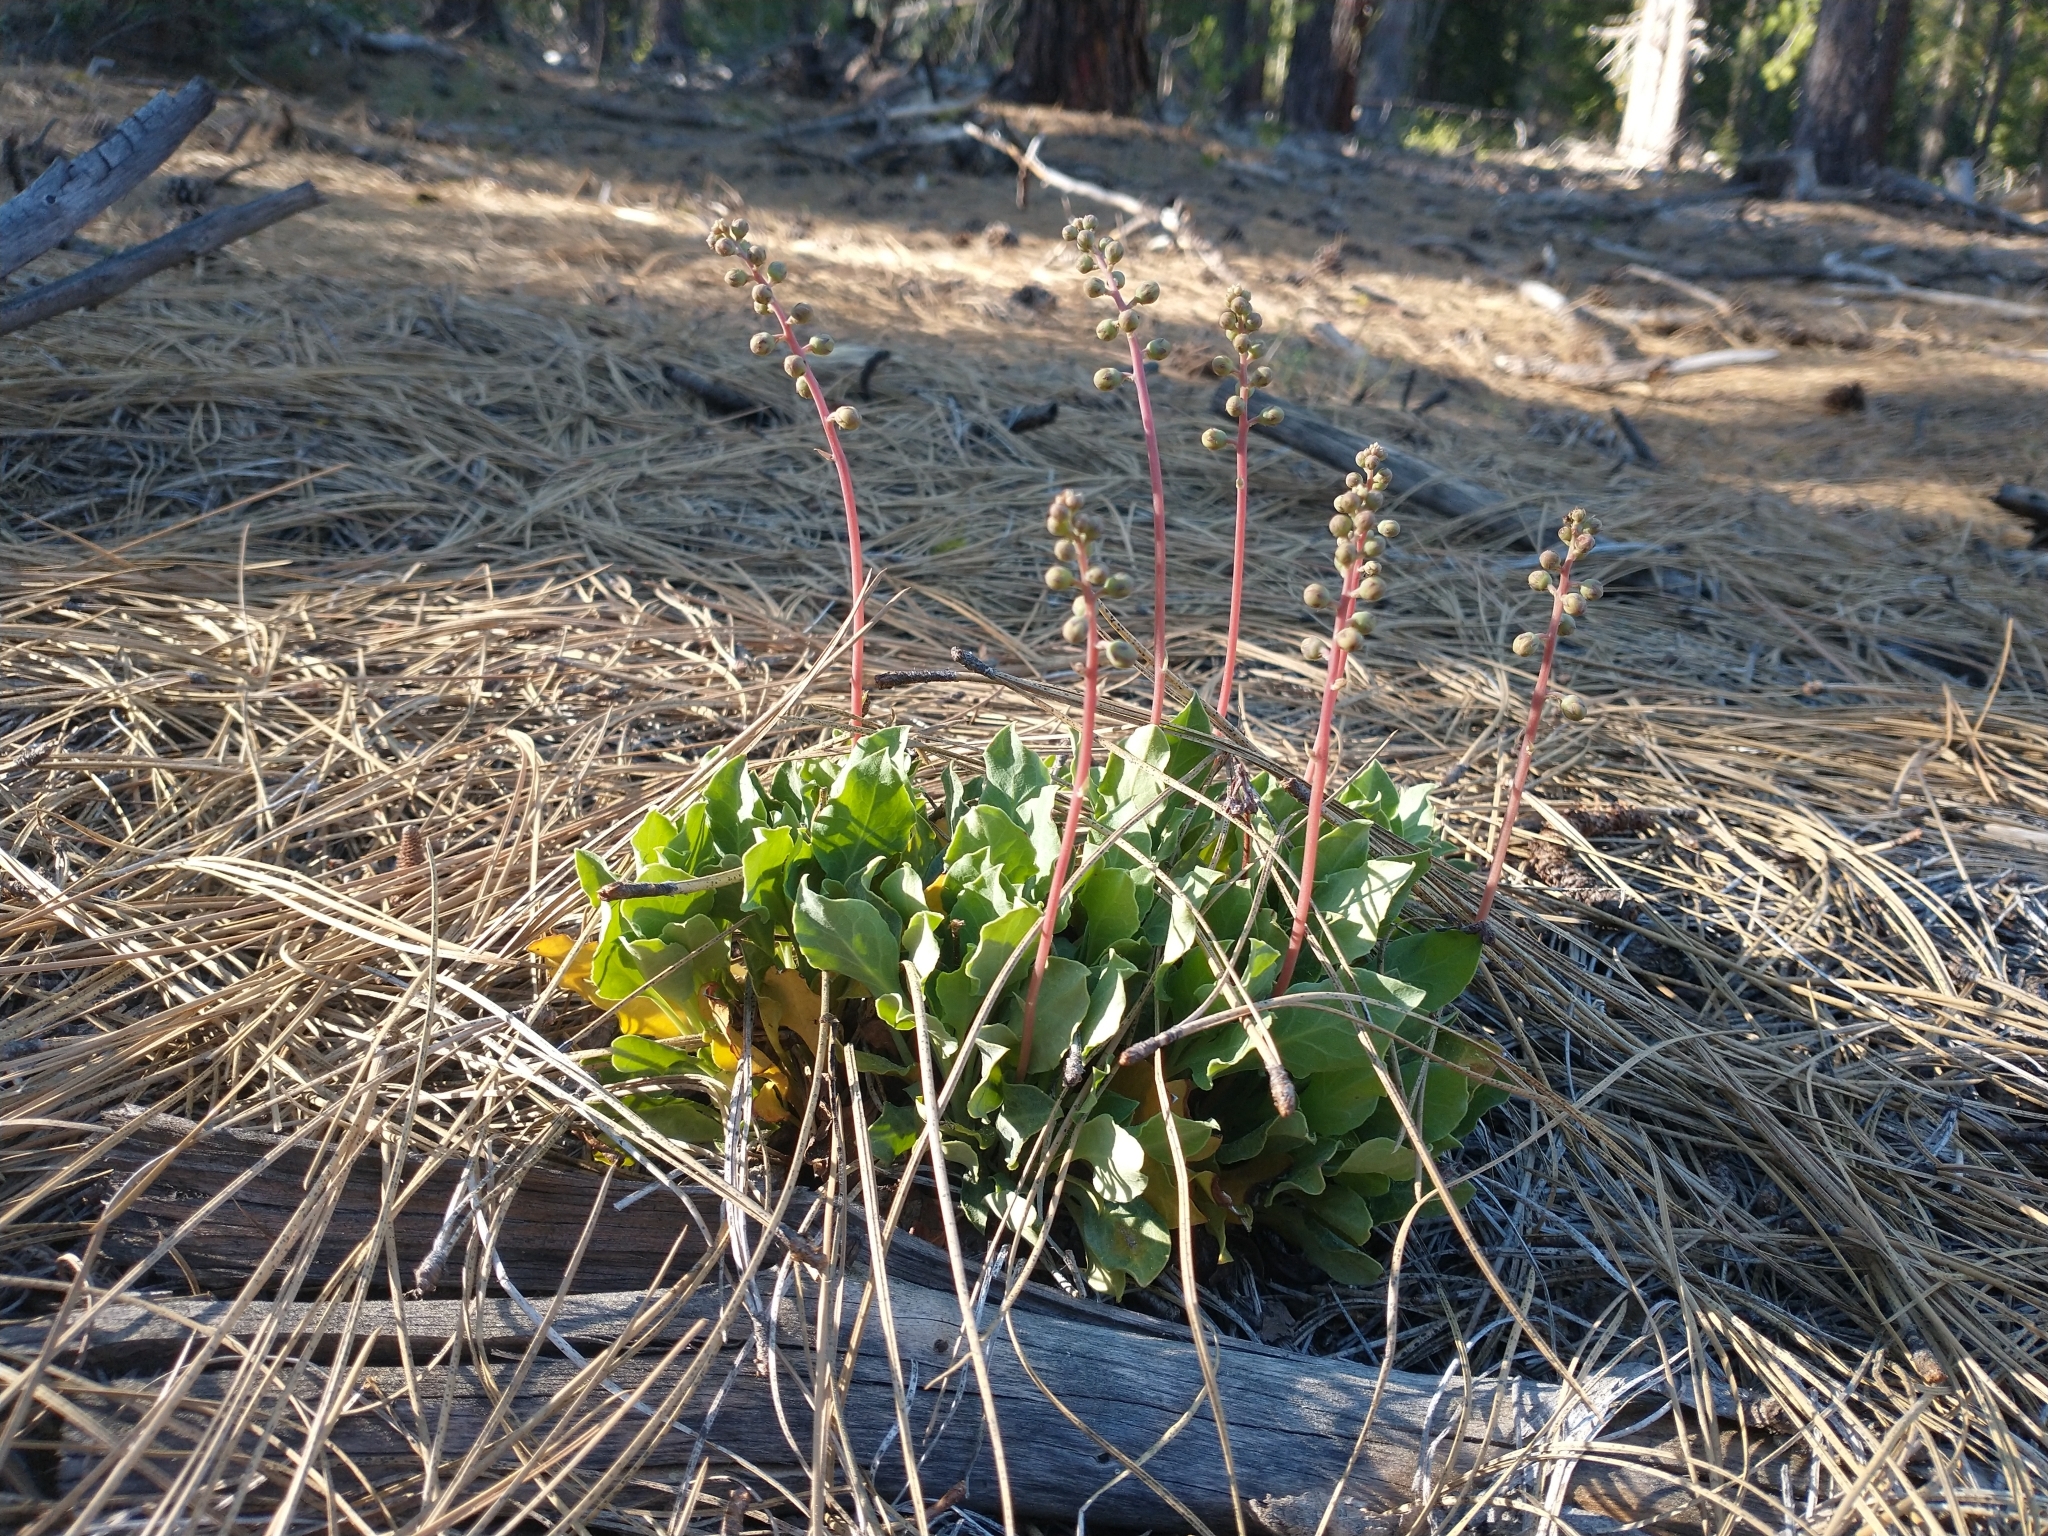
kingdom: Plantae
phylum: Tracheophyta
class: Magnoliopsida
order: Ericales
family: Ericaceae
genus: Pyrola
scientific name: Pyrola dentata
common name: Tooth-leaved wintergreen
